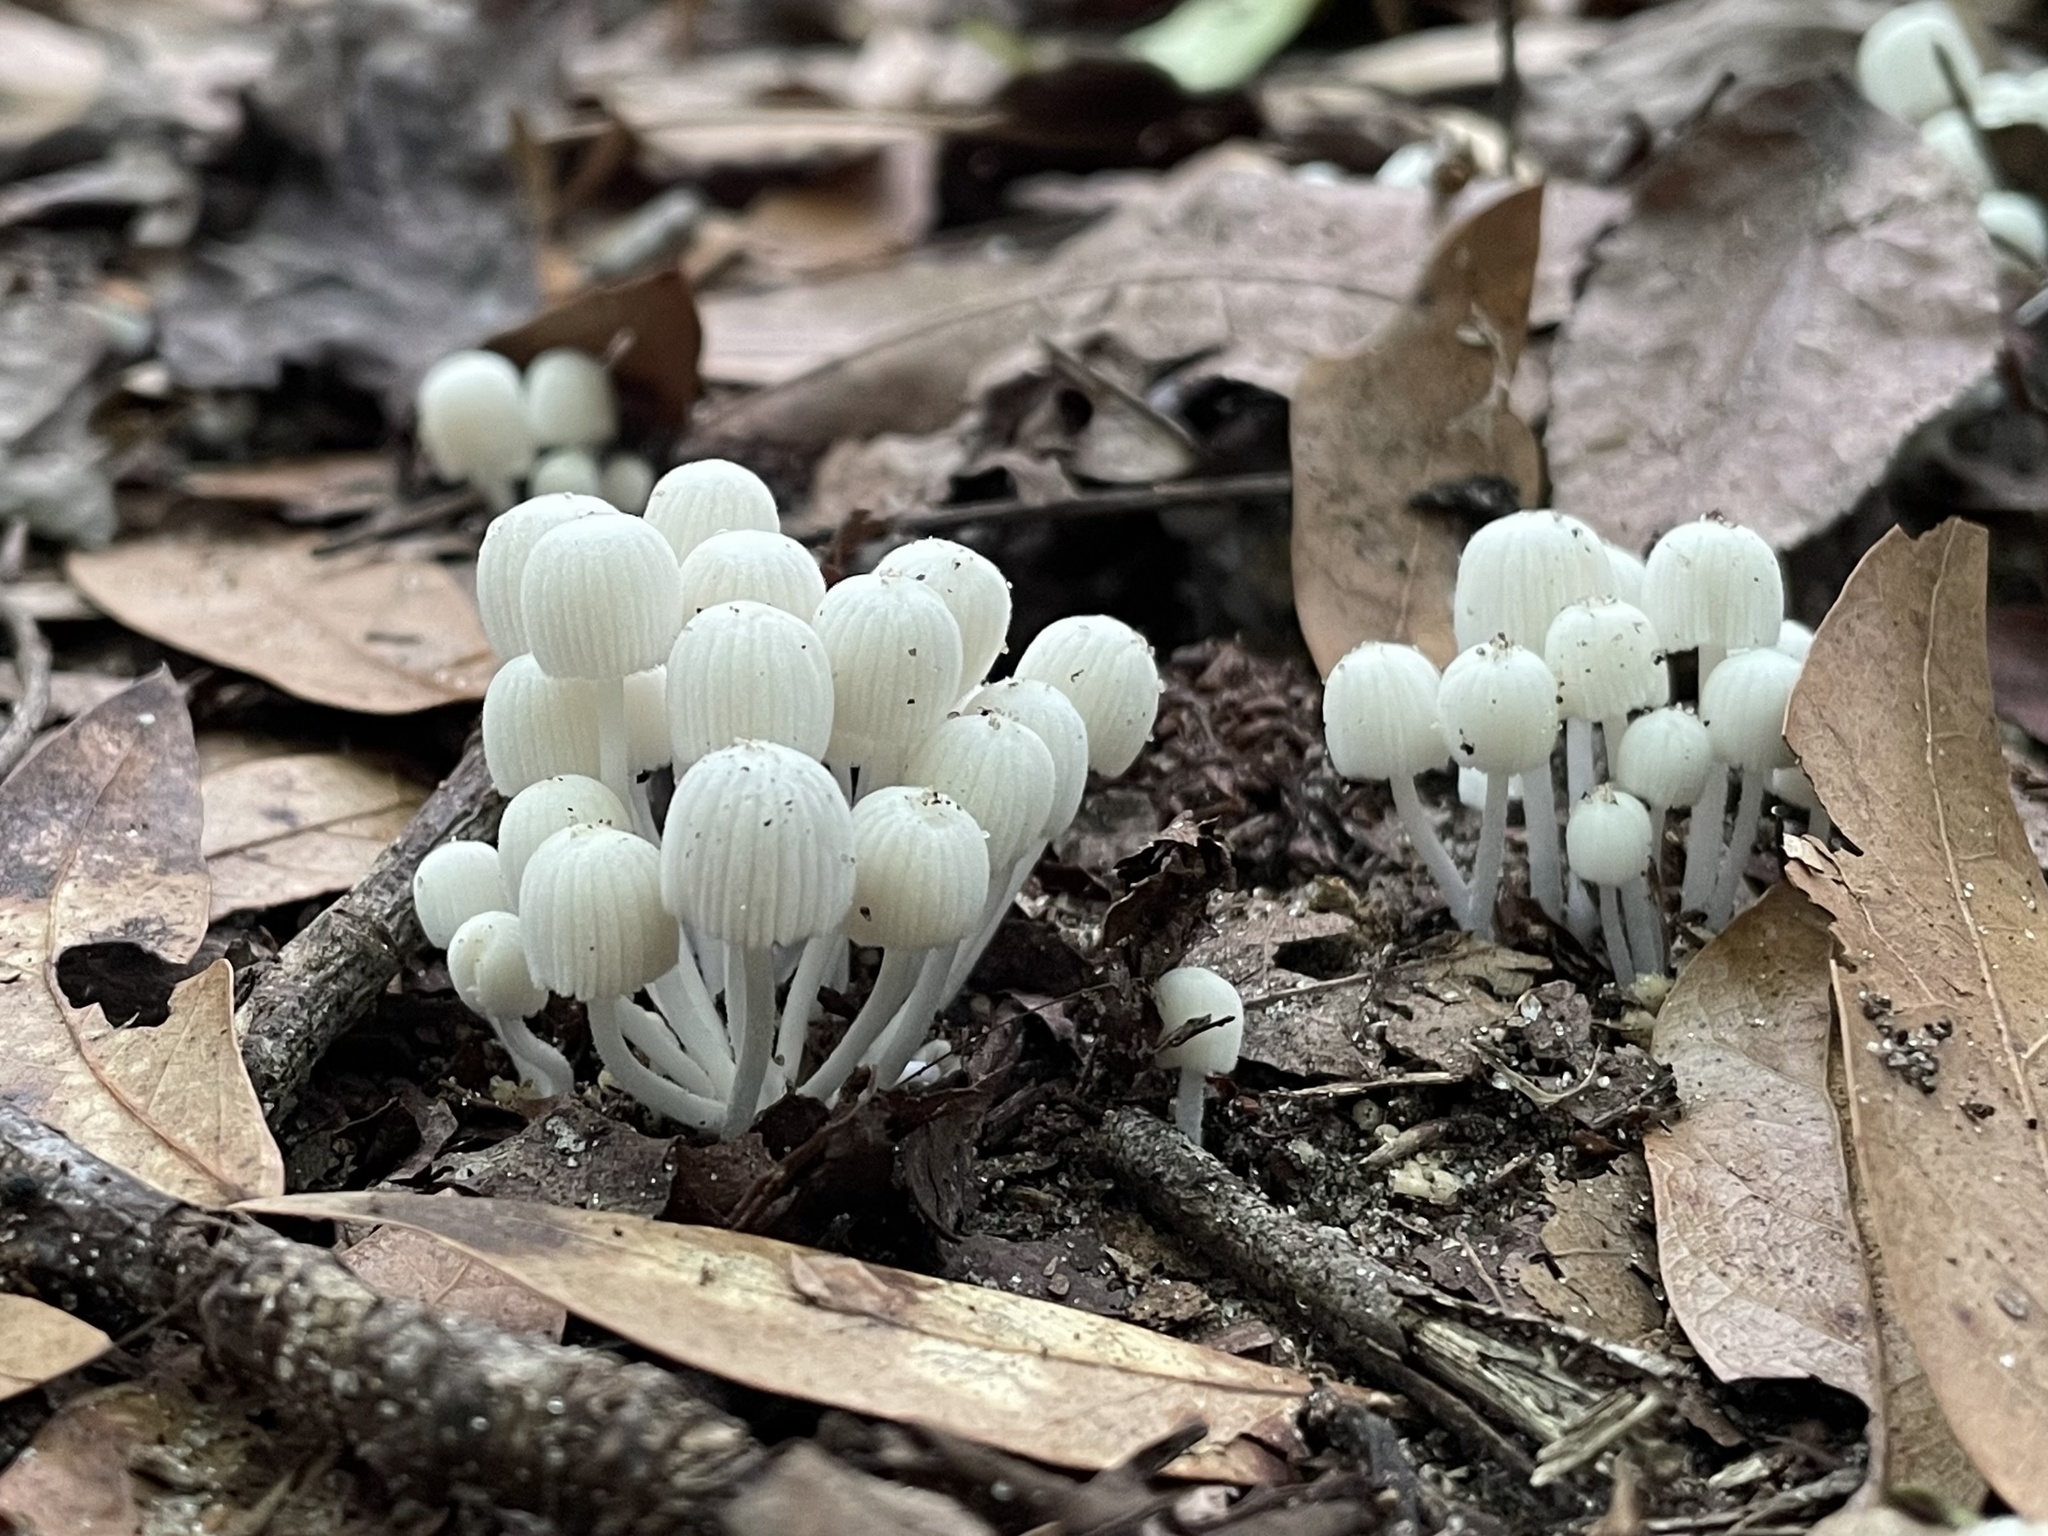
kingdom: Fungi
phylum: Basidiomycota
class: Agaricomycetes
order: Agaricales
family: Psathyrellaceae
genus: Coprinellus
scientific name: Coprinellus disseminatus
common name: Fairies' bonnets
